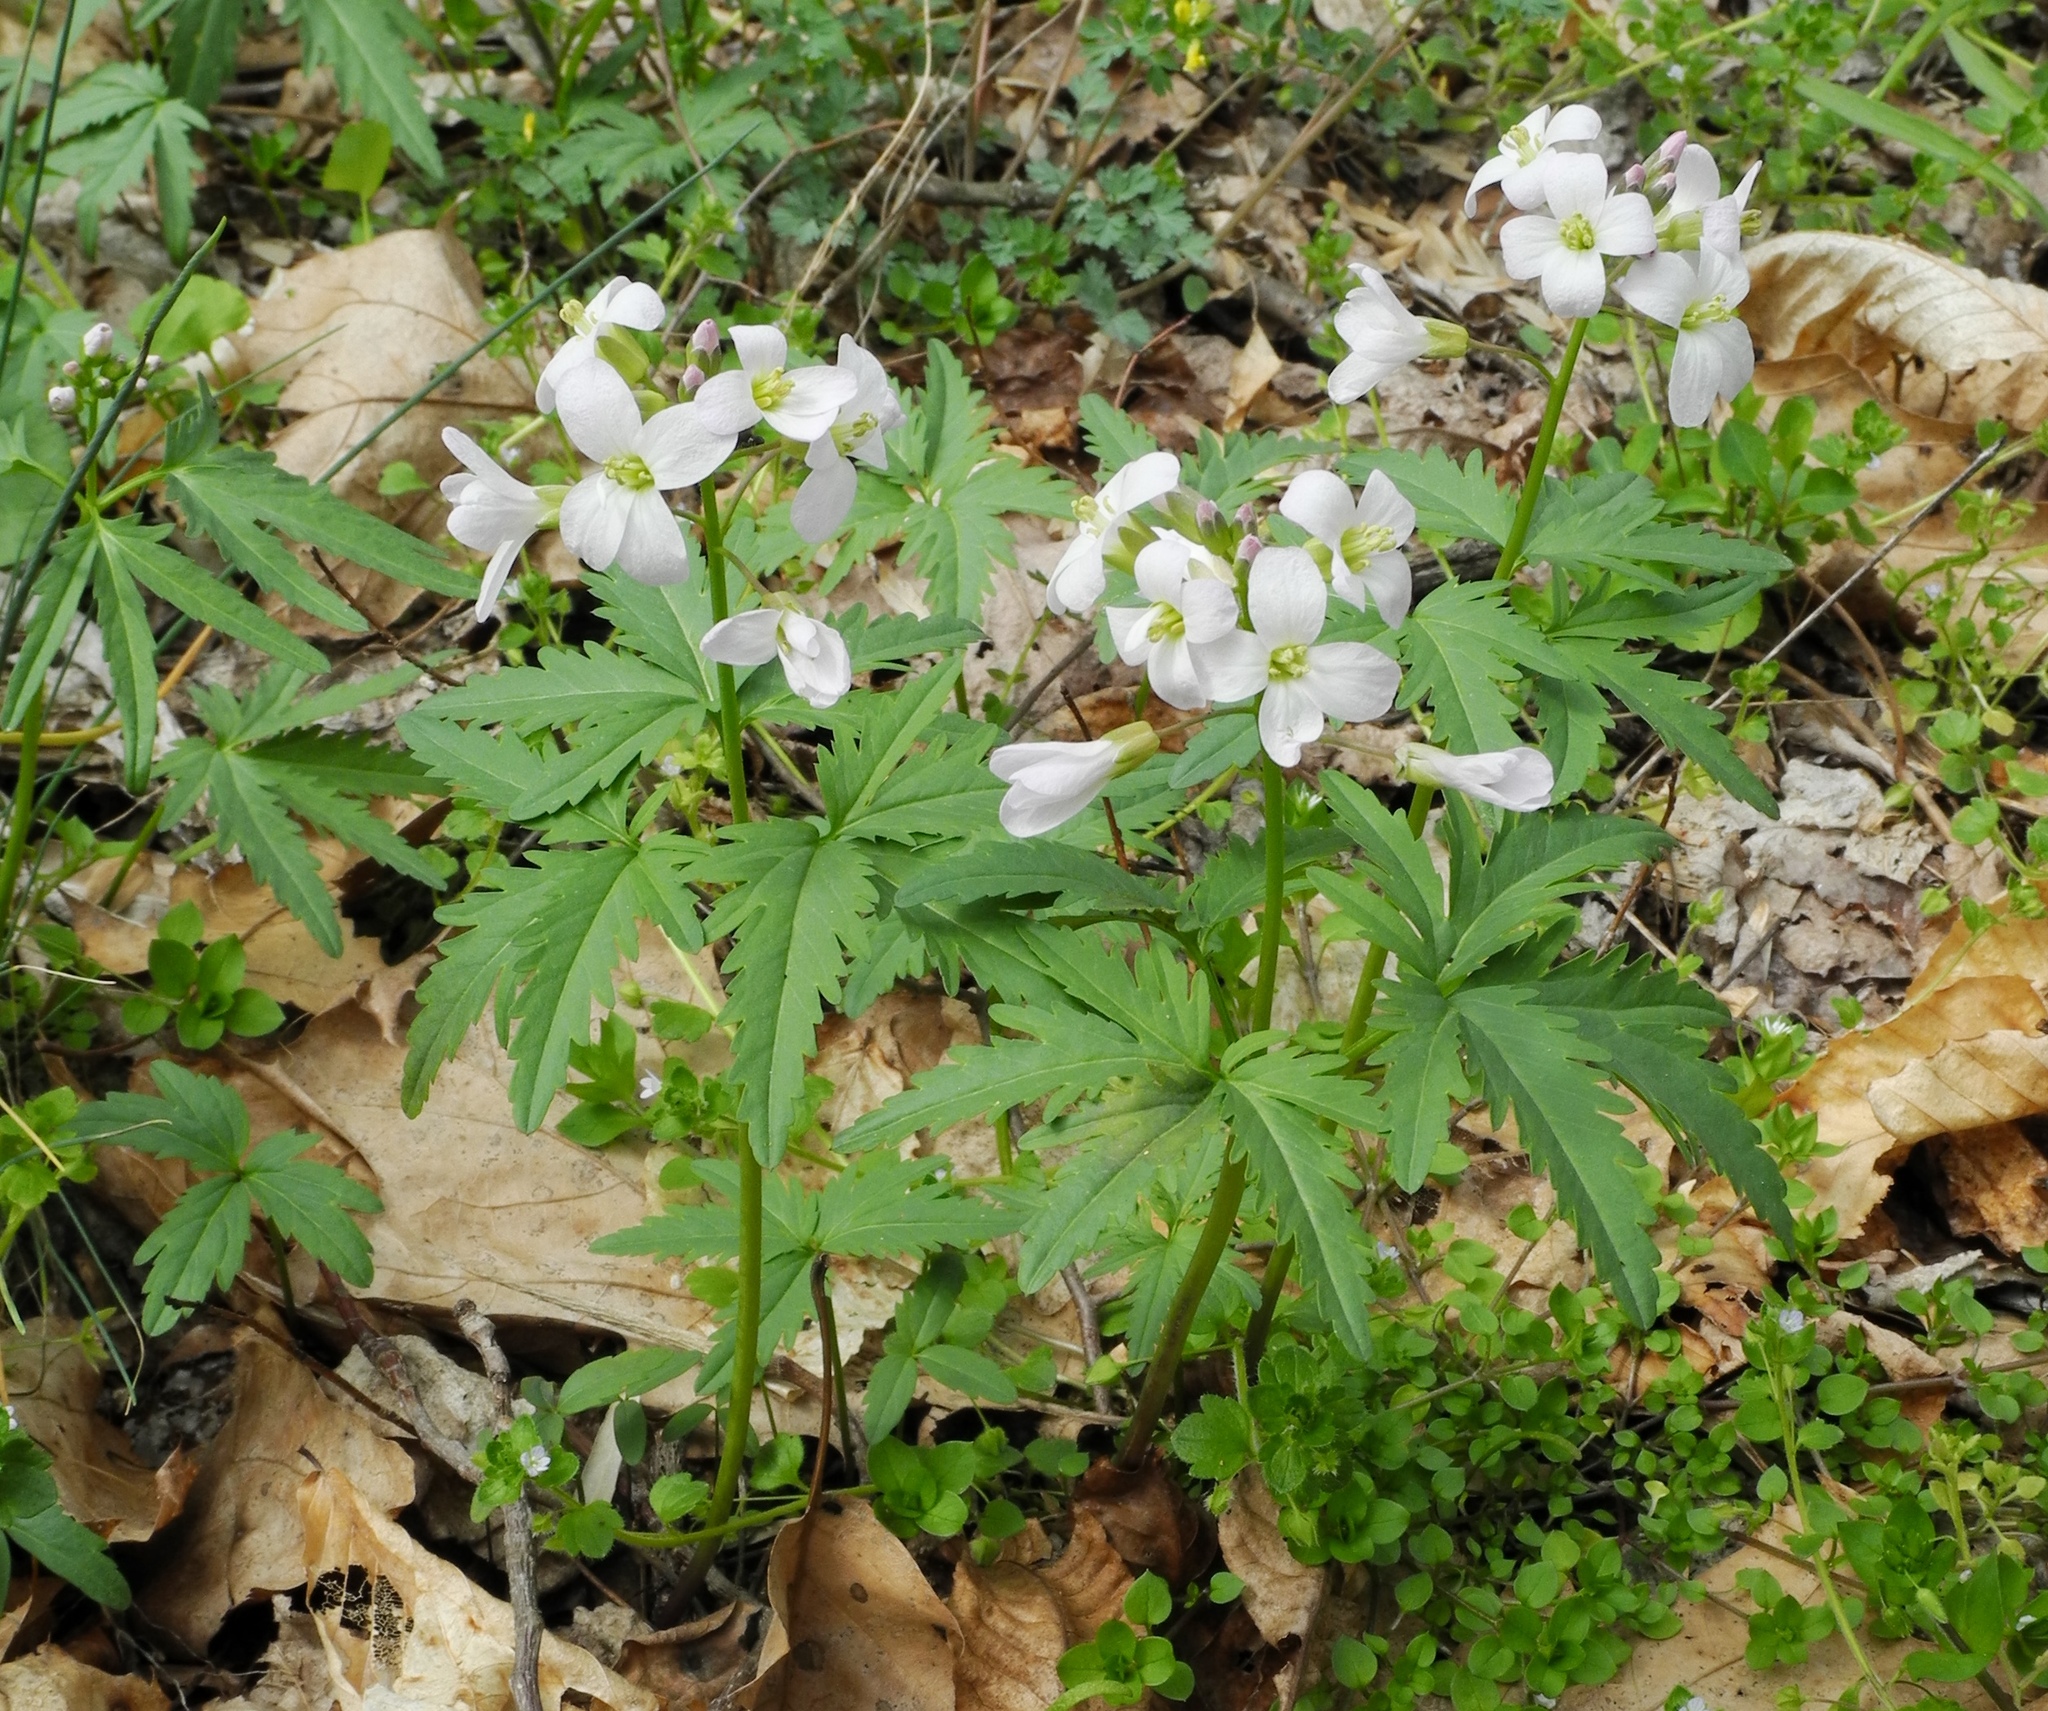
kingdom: Plantae
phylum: Tracheophyta
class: Magnoliopsida
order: Brassicales
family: Brassicaceae
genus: Cardamine
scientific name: Cardamine concatenata
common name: Cut-leaf toothcup
